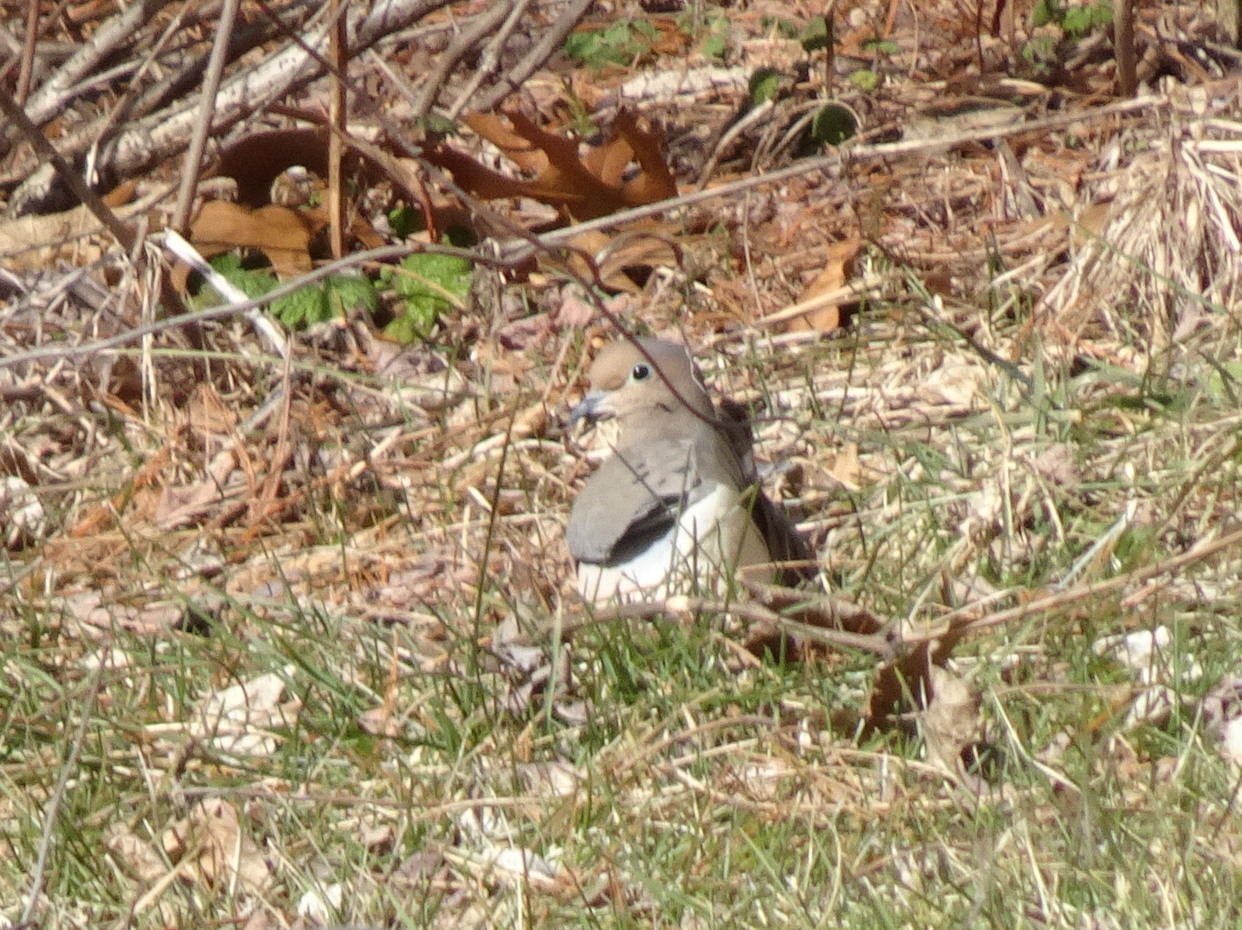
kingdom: Animalia
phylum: Chordata
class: Aves
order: Columbiformes
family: Columbidae
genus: Zenaida
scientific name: Zenaida macroura
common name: Mourning dove
